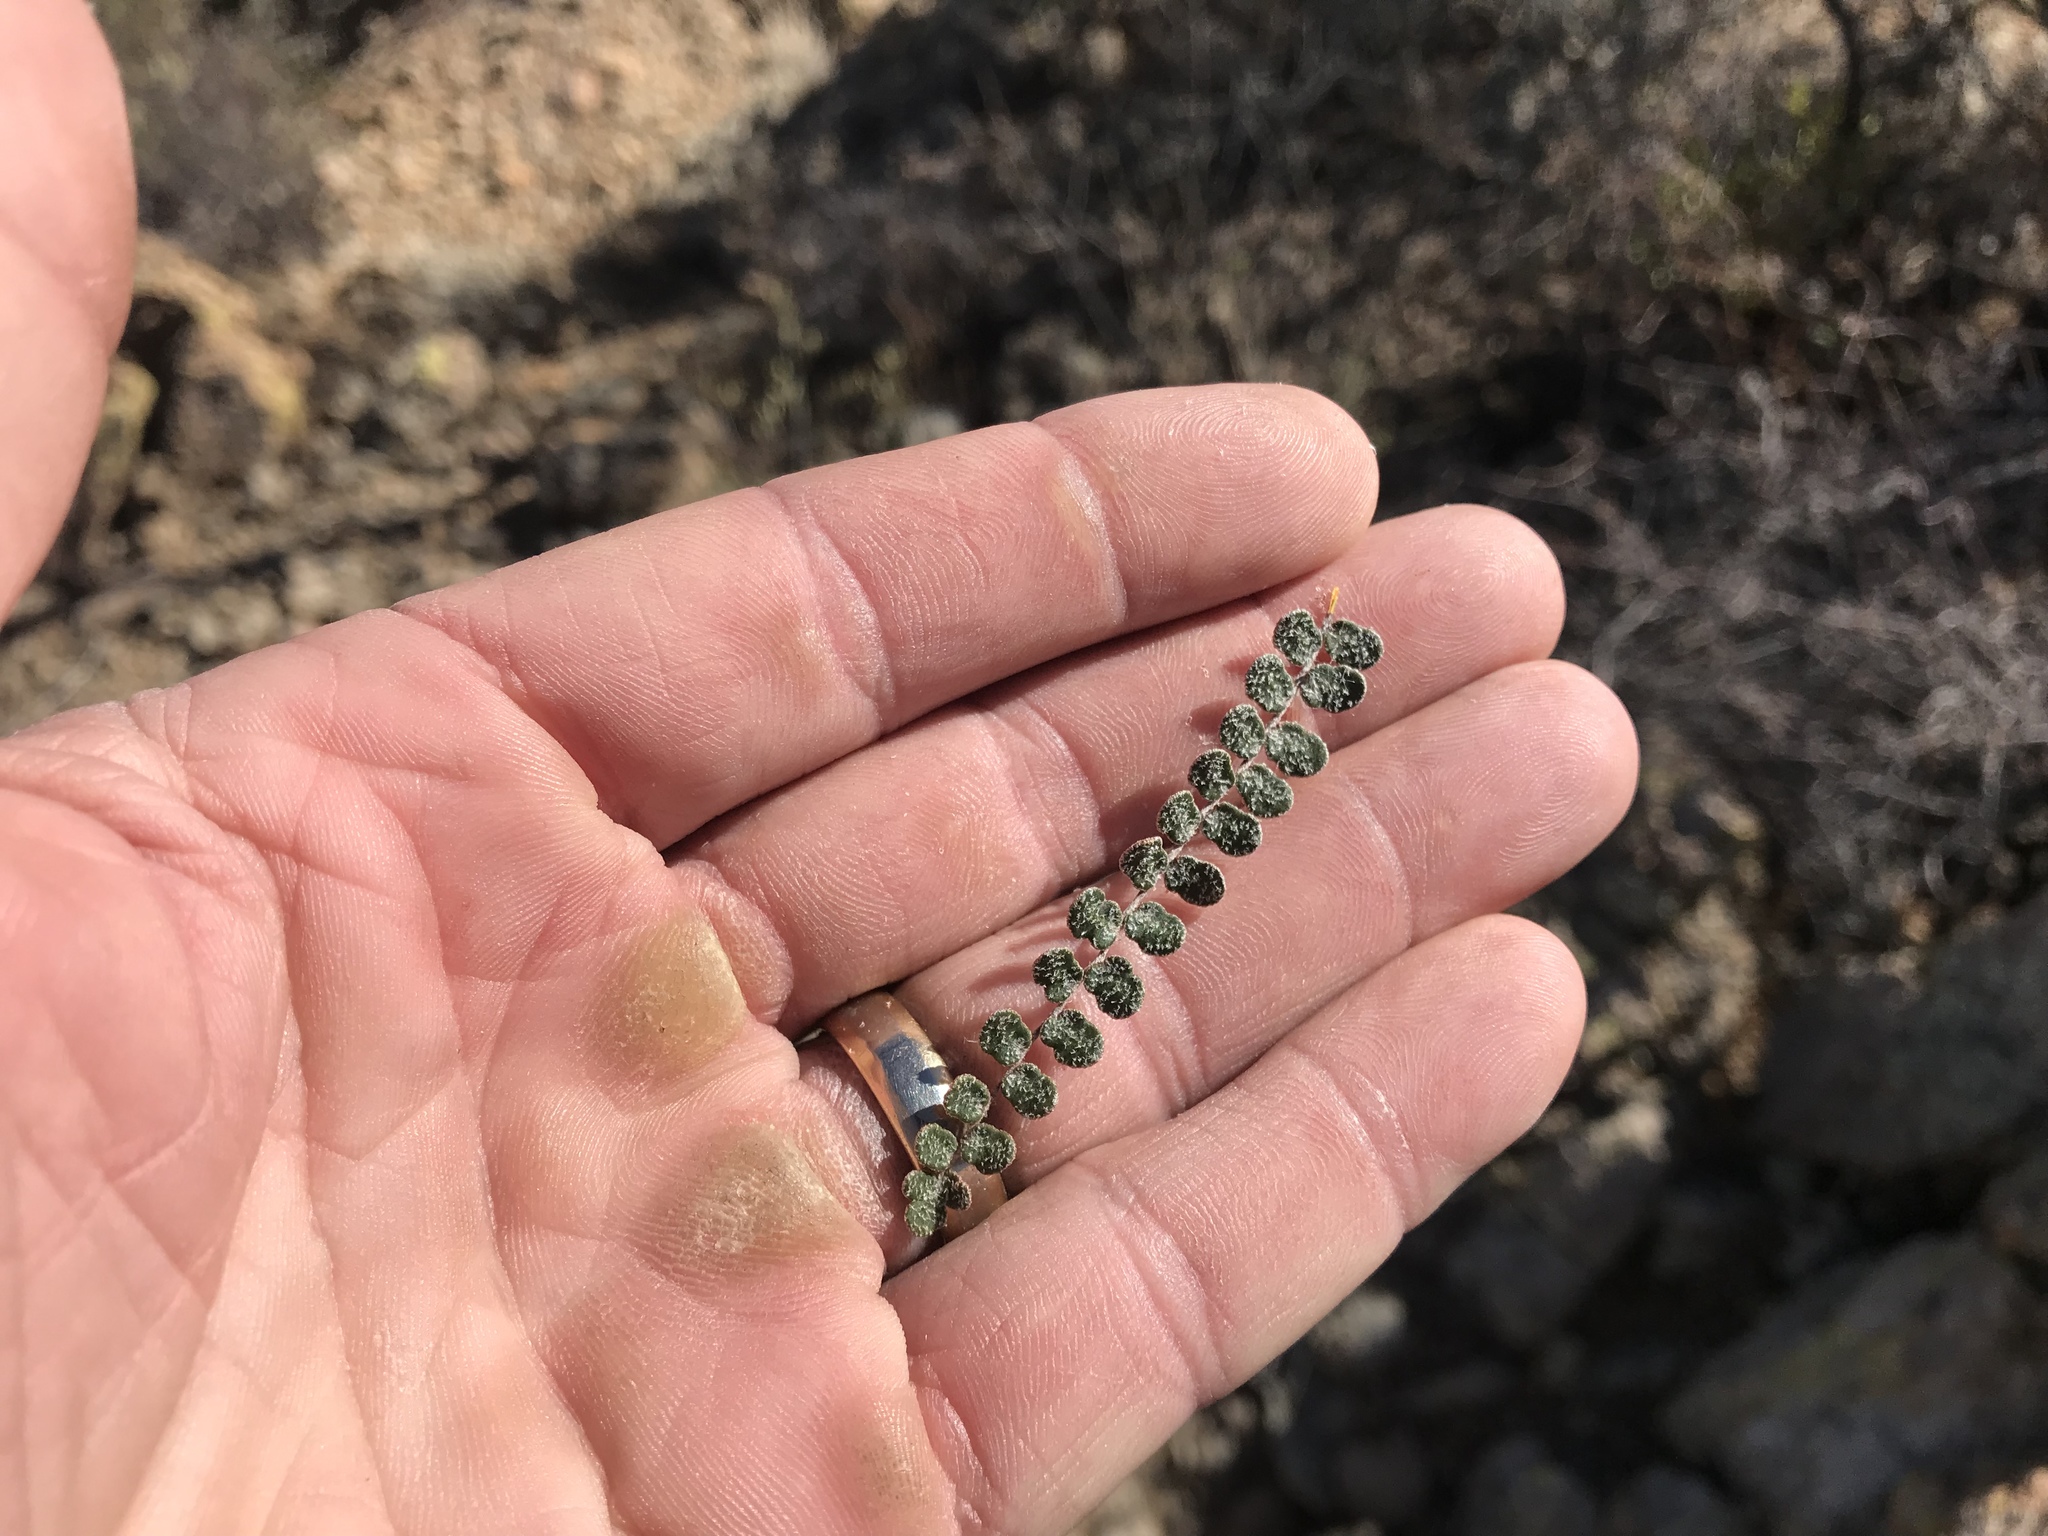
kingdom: Plantae
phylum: Tracheophyta
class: Polypodiopsida
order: Polypodiales
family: Pteridaceae
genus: Astrolepis
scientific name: Astrolepis cochisensis
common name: Scaly cloak fern
